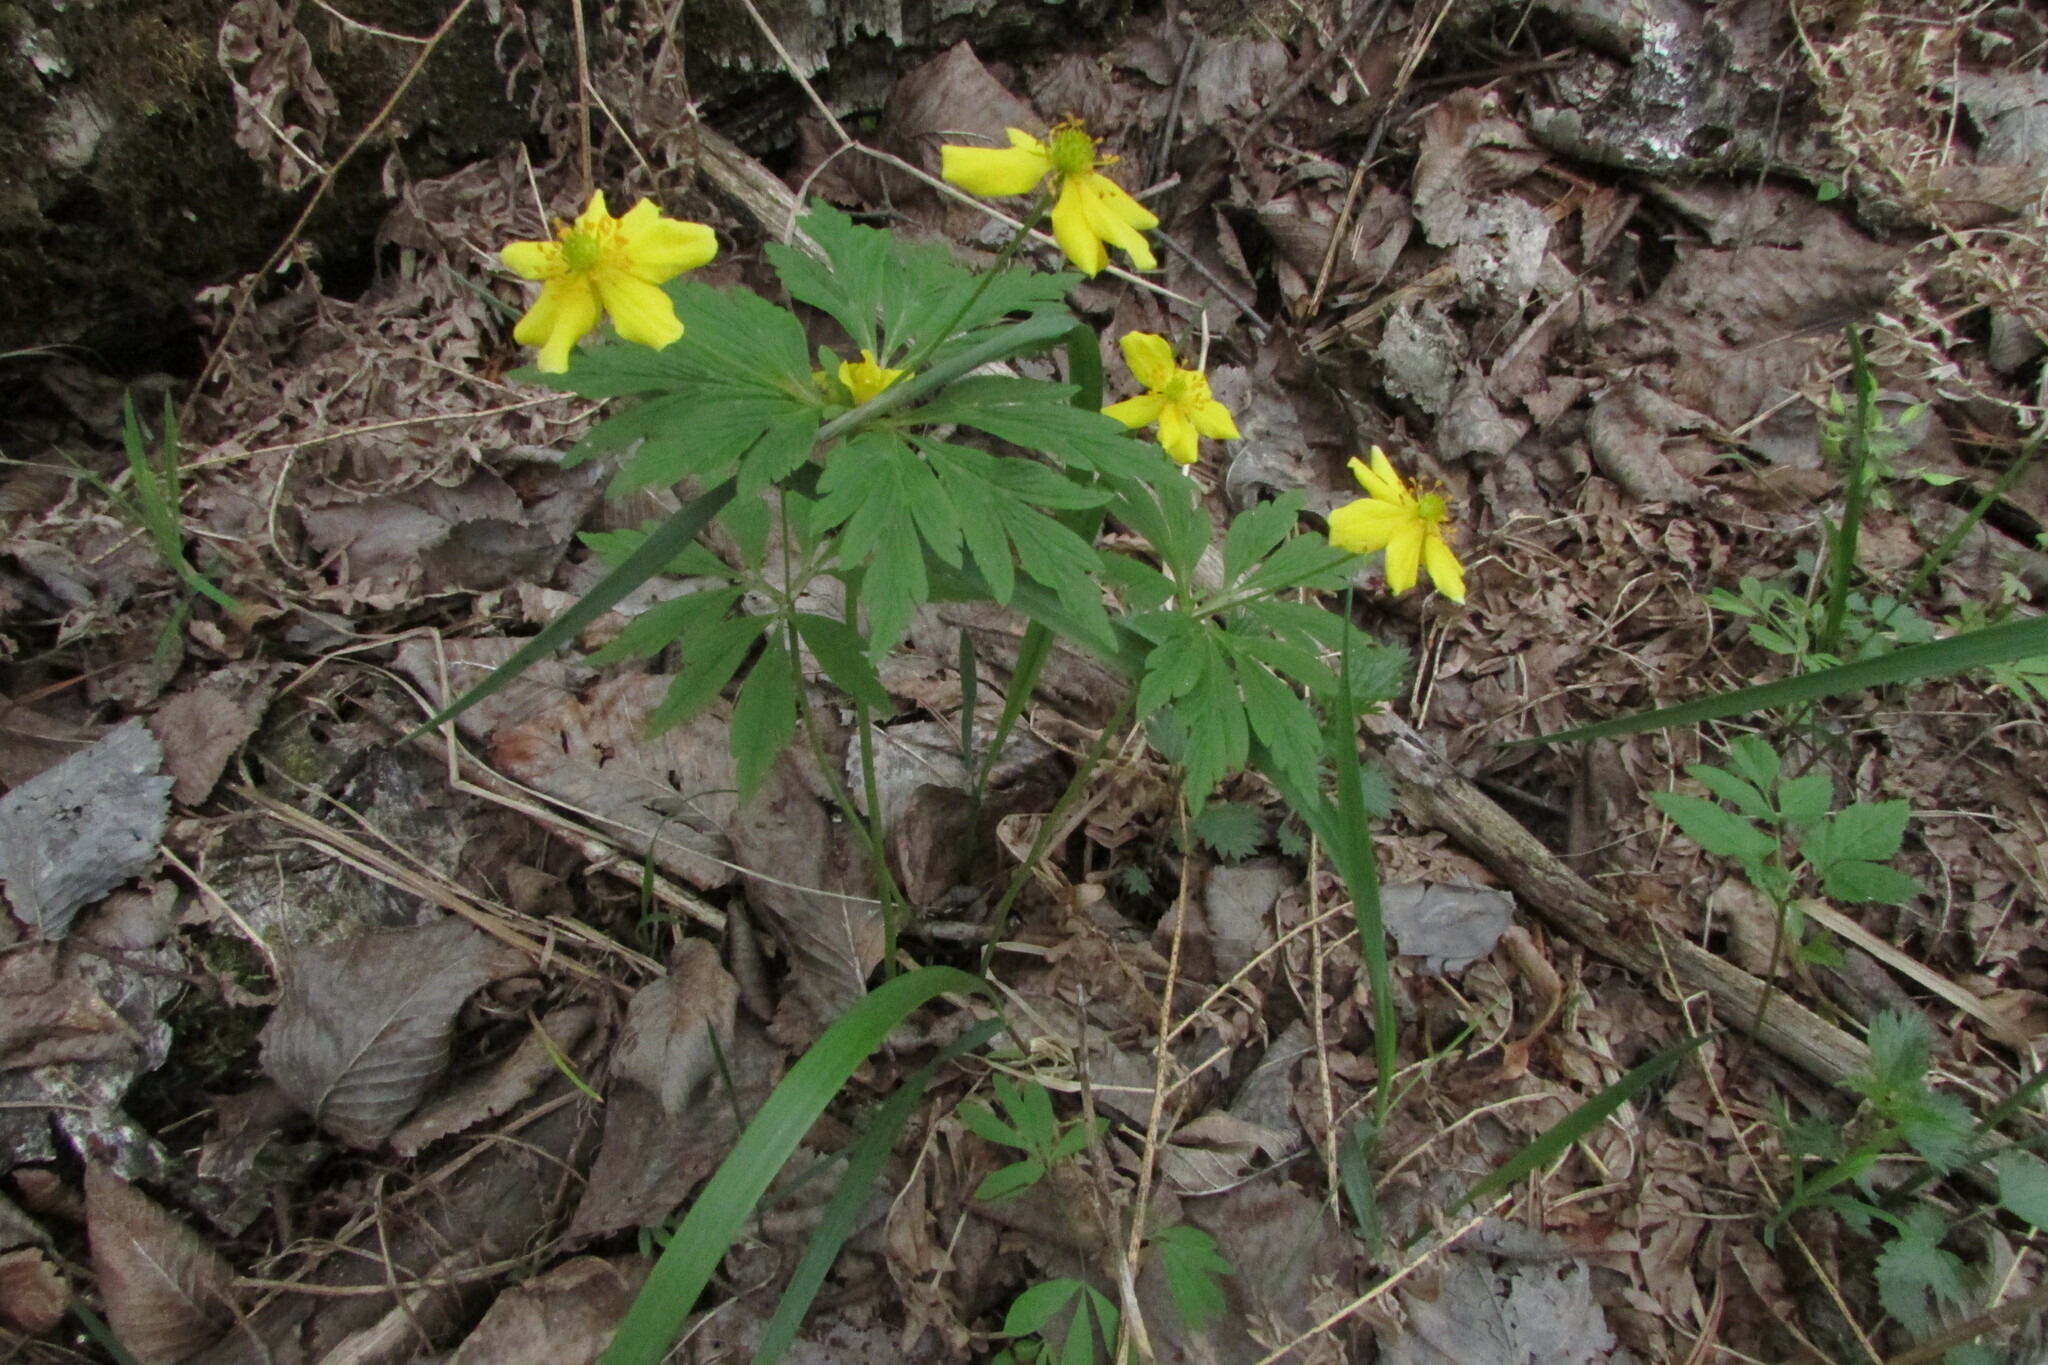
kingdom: Plantae
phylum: Tracheophyta
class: Magnoliopsida
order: Ranunculales
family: Ranunculaceae
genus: Anemone
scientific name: Anemone ranunculoides
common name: Yellow anemone
